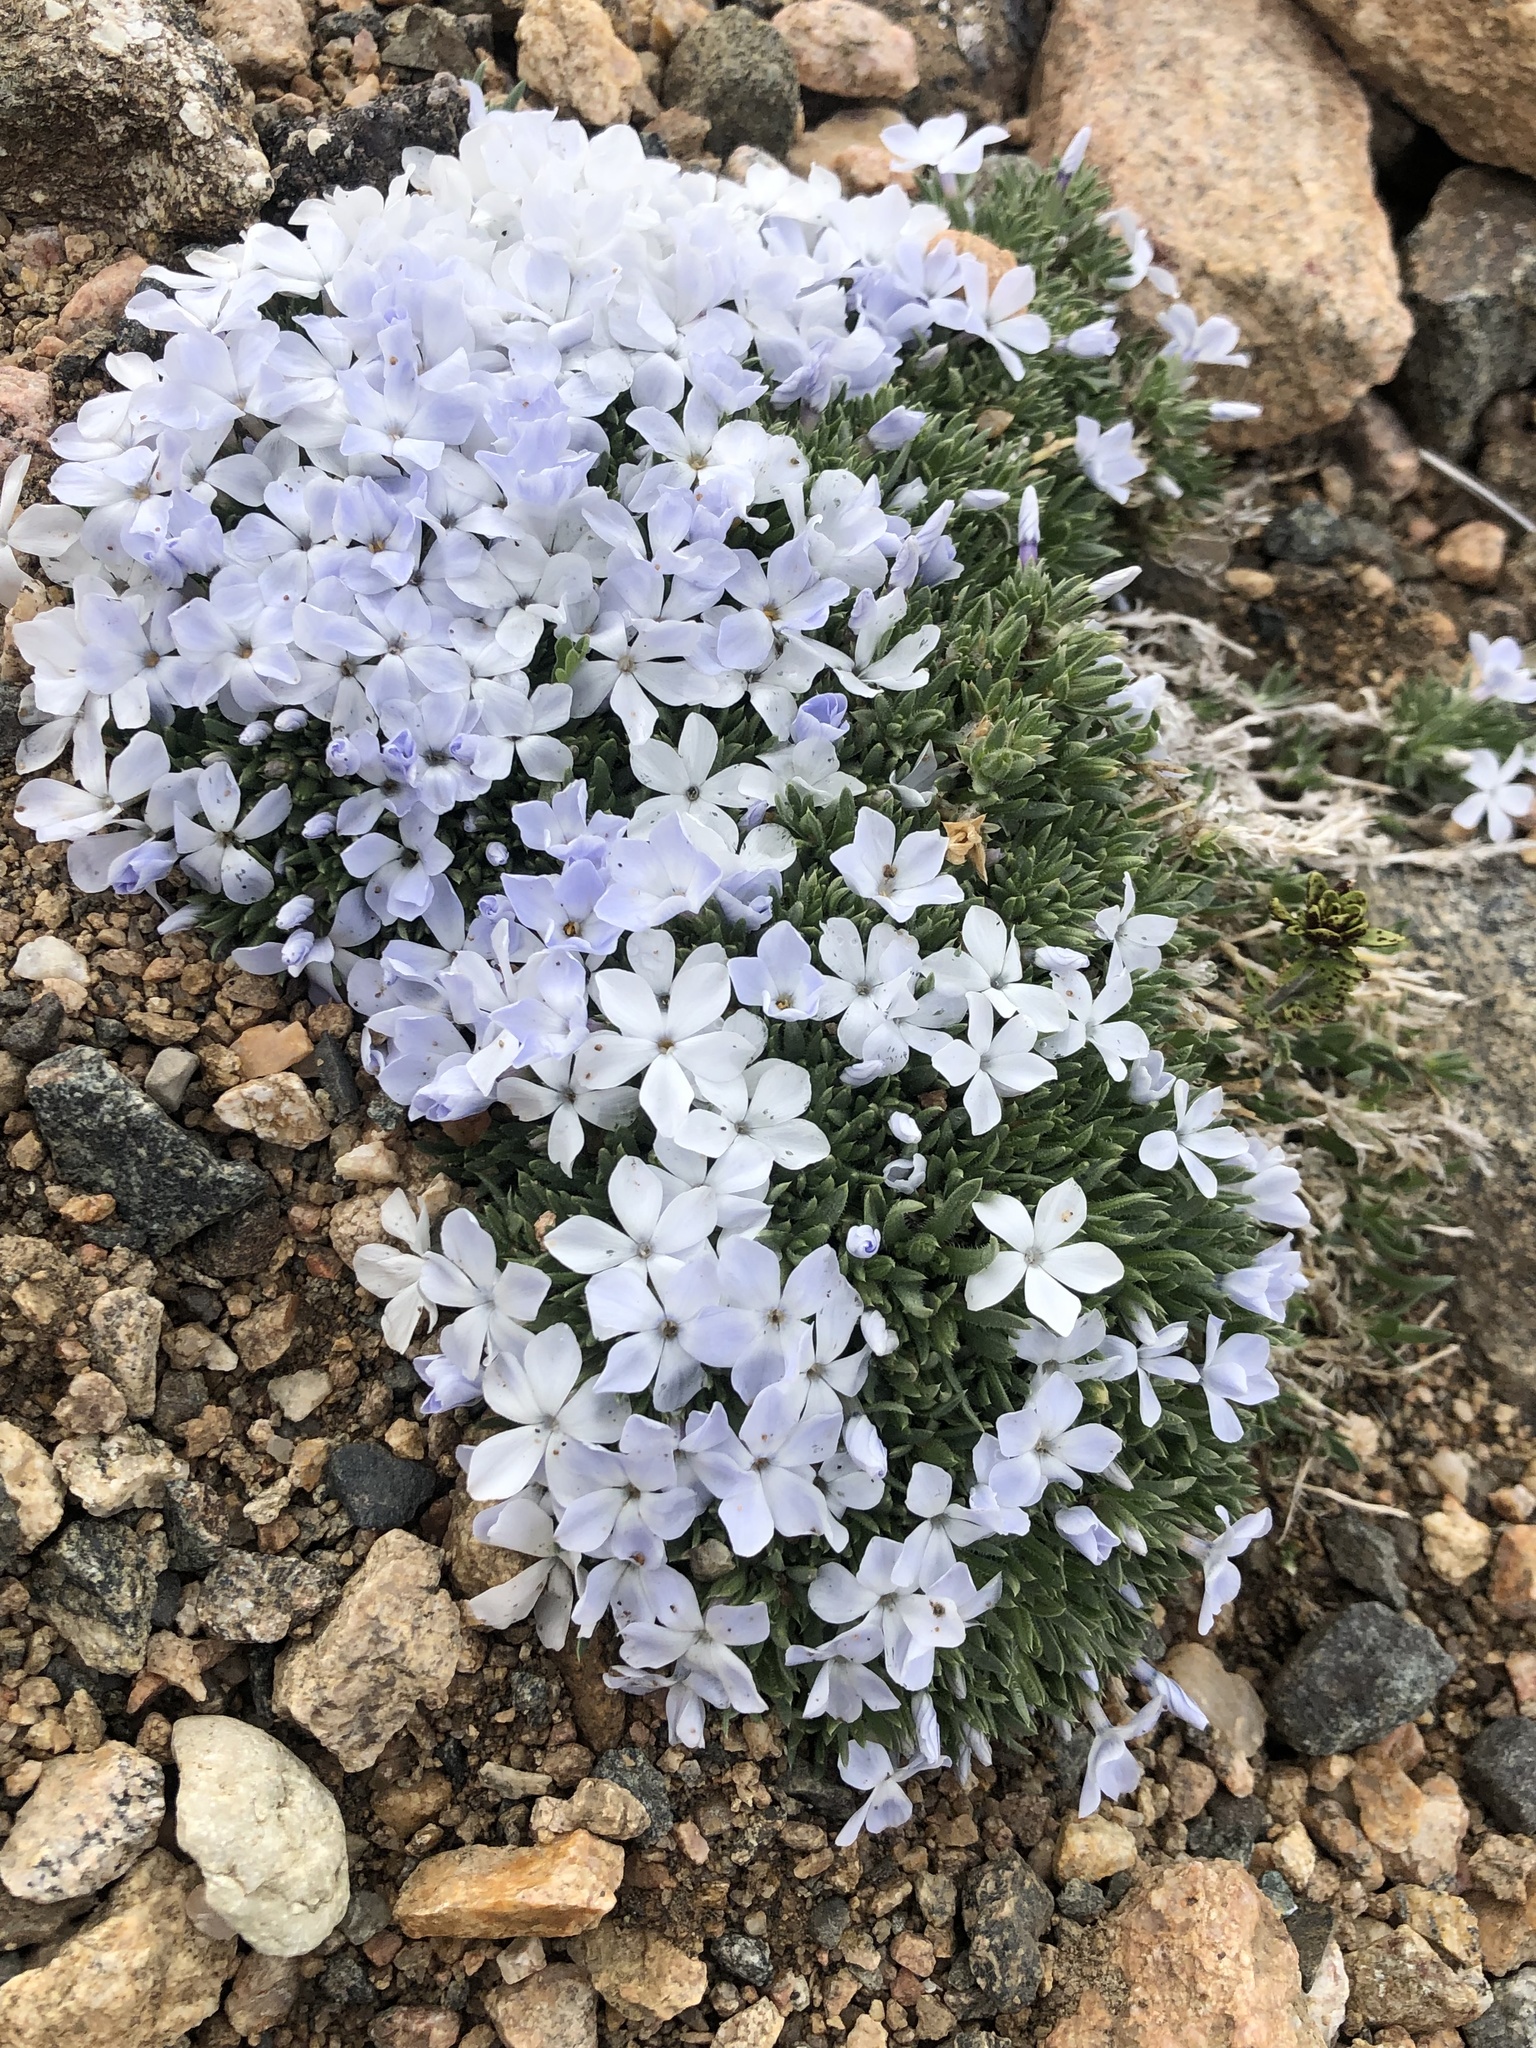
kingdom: Plantae
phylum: Tracheophyta
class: Magnoliopsida
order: Ericales
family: Polemoniaceae
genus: Phlox
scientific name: Phlox pulvinata
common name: Cushion phlox
